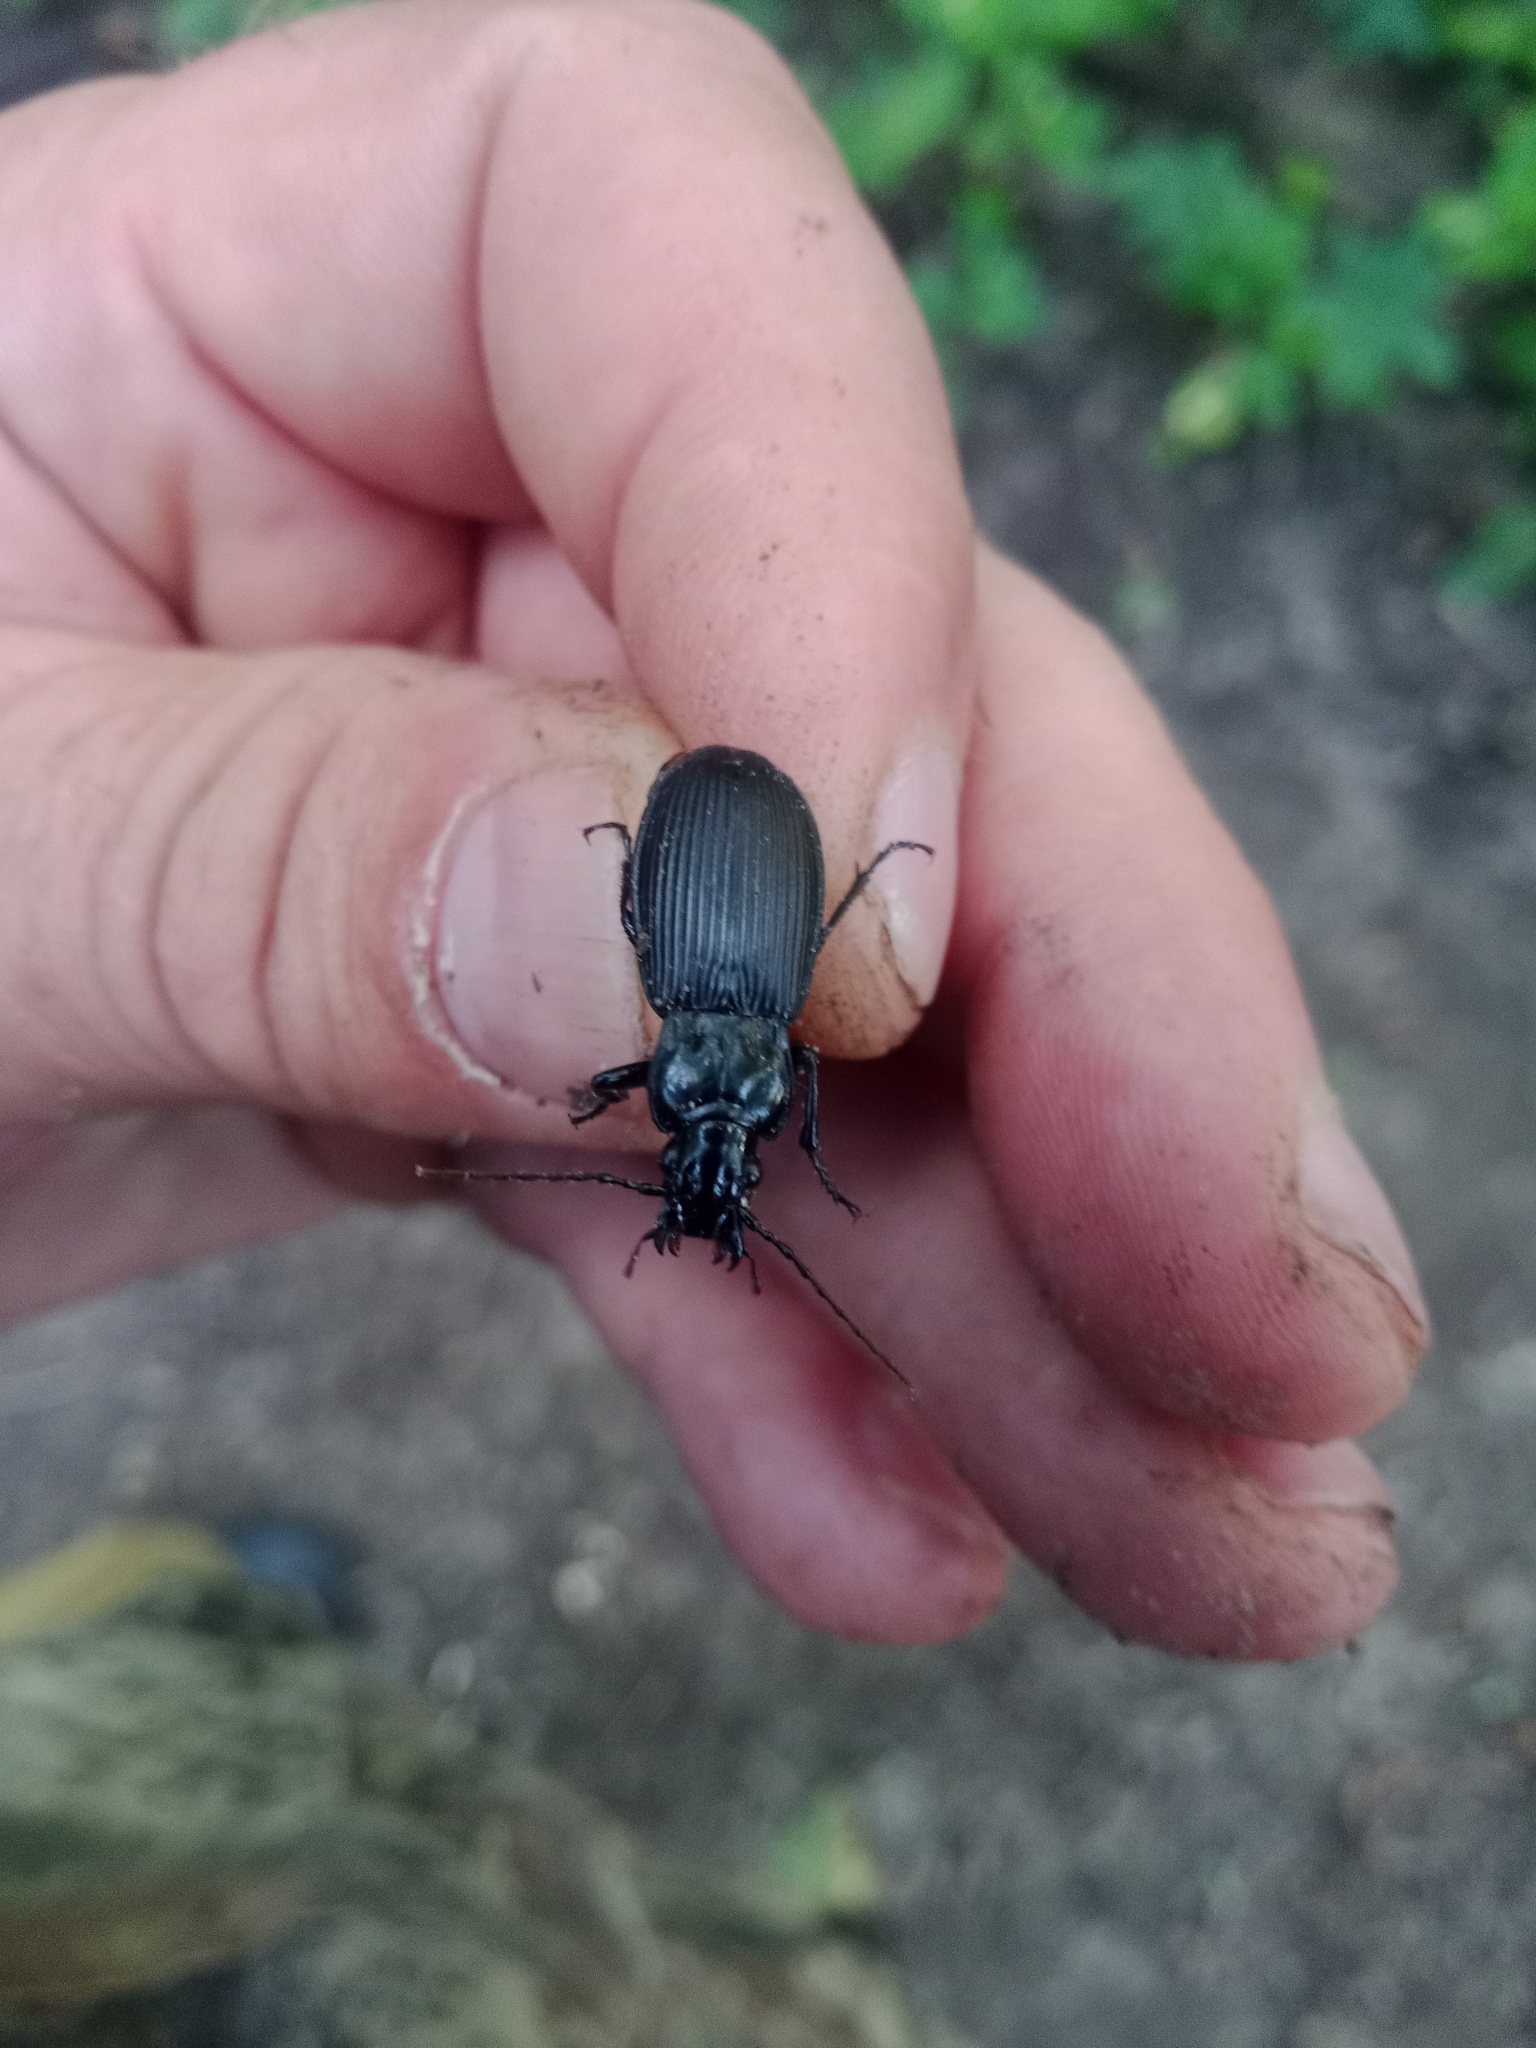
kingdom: Animalia
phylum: Arthropoda
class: Insecta
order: Coleoptera
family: Carabidae
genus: Pterostichus
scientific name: Pterostichus niger
